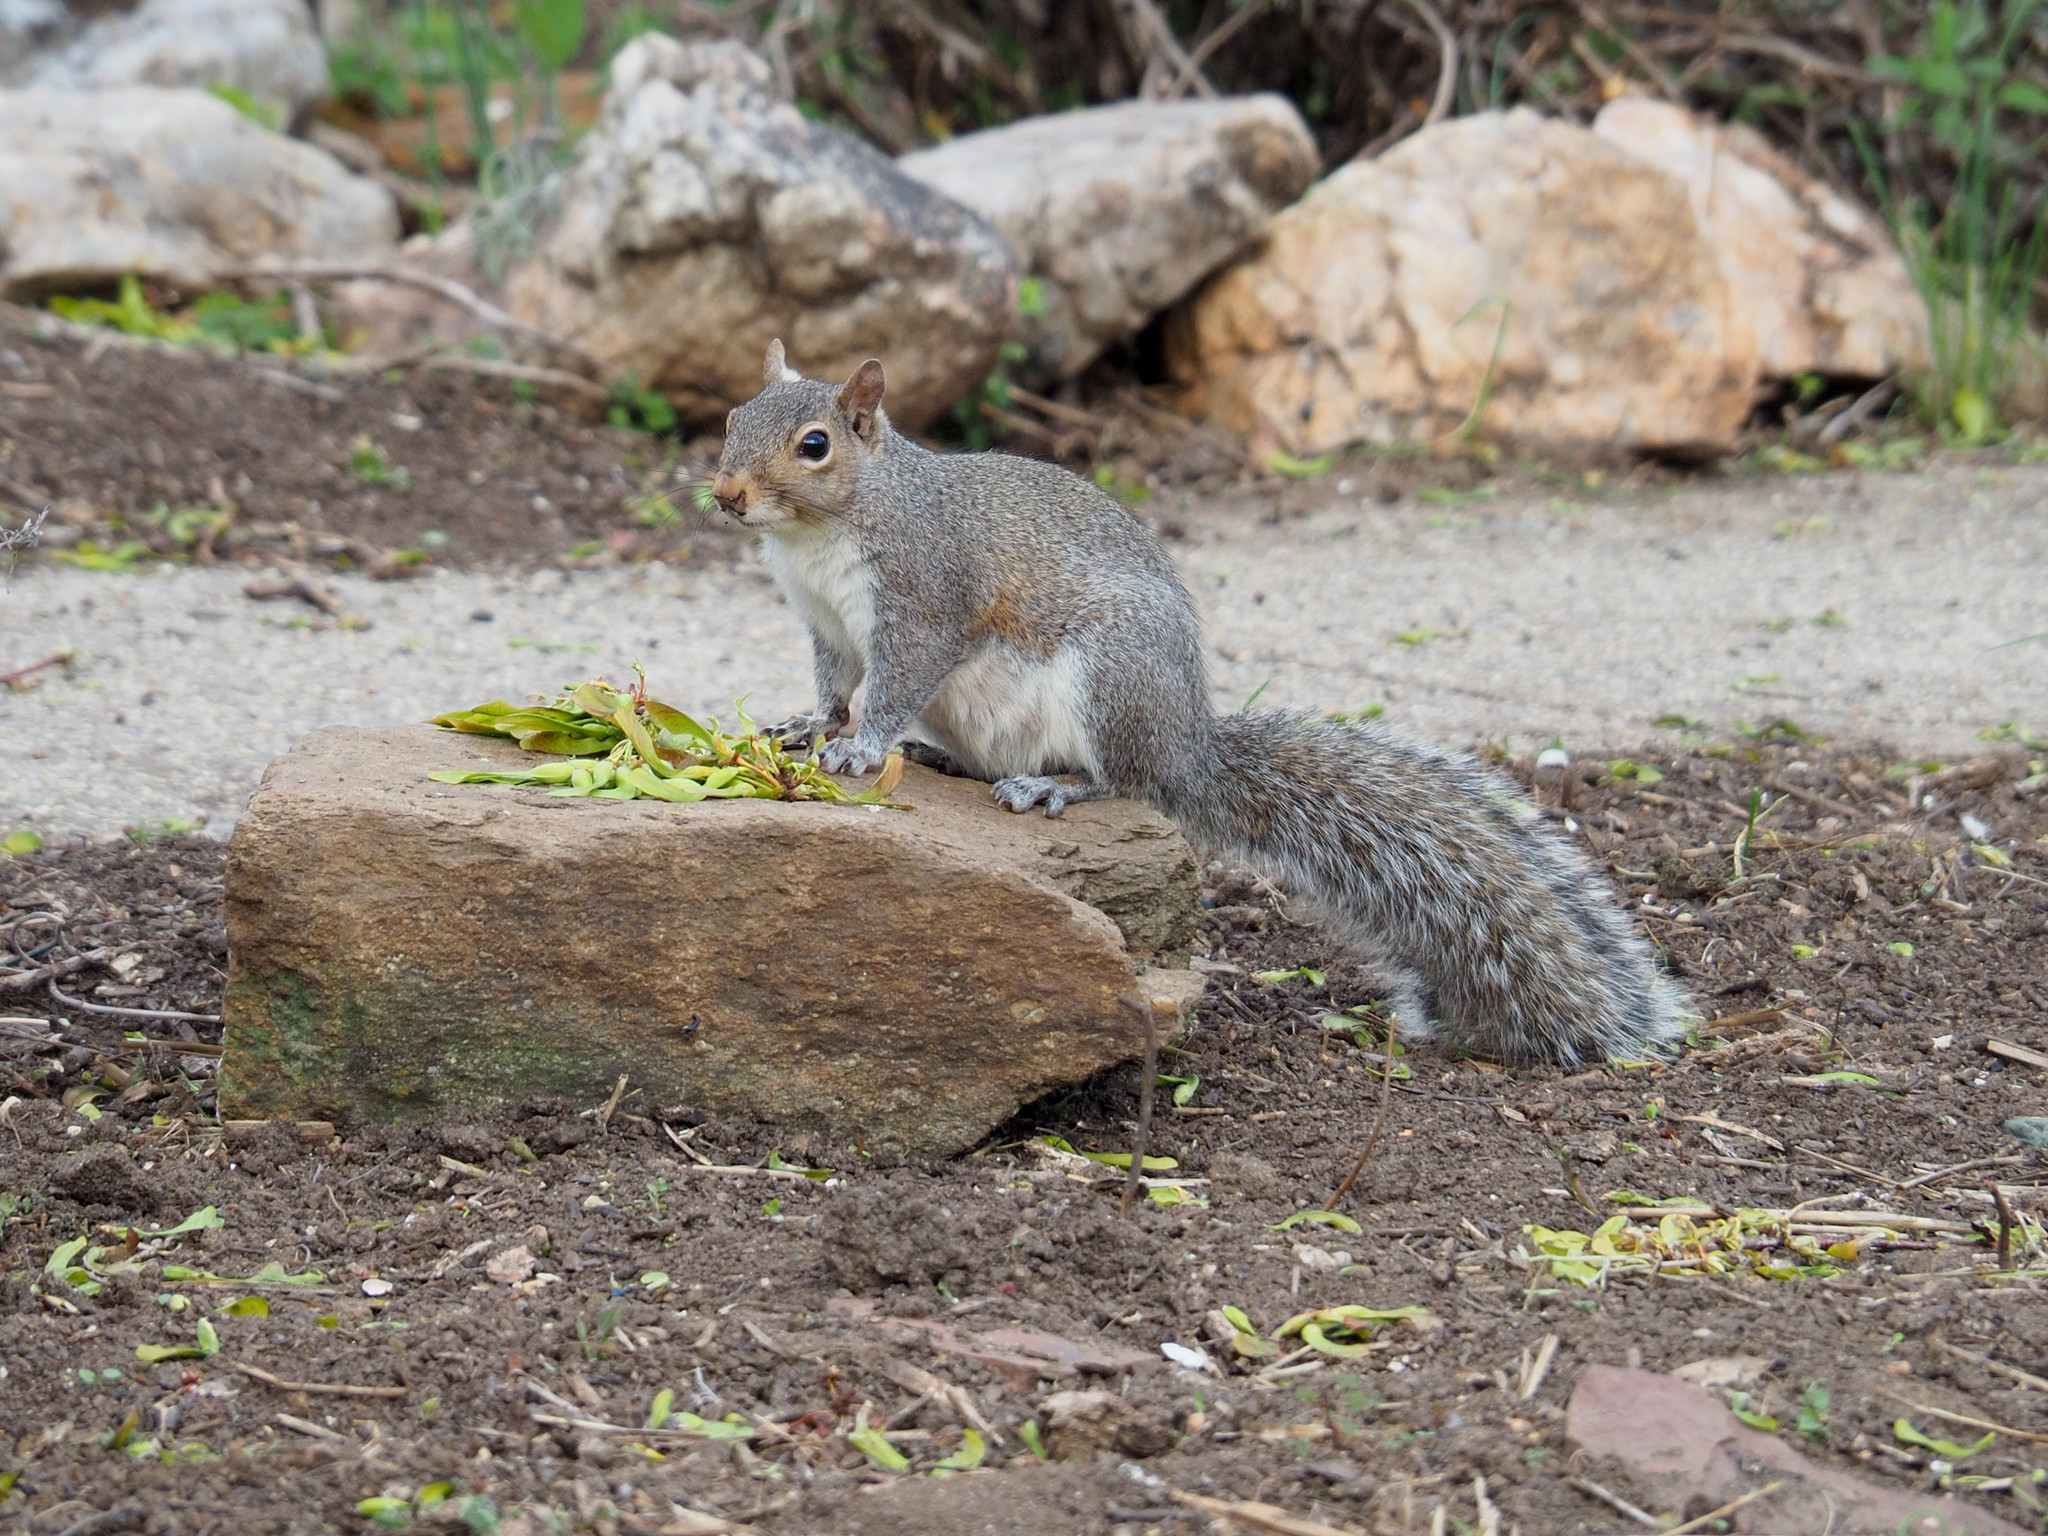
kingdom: Animalia
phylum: Chordata
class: Mammalia
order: Rodentia
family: Sciuridae
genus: Sciurus
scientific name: Sciurus carolinensis
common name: Eastern gray squirrel
